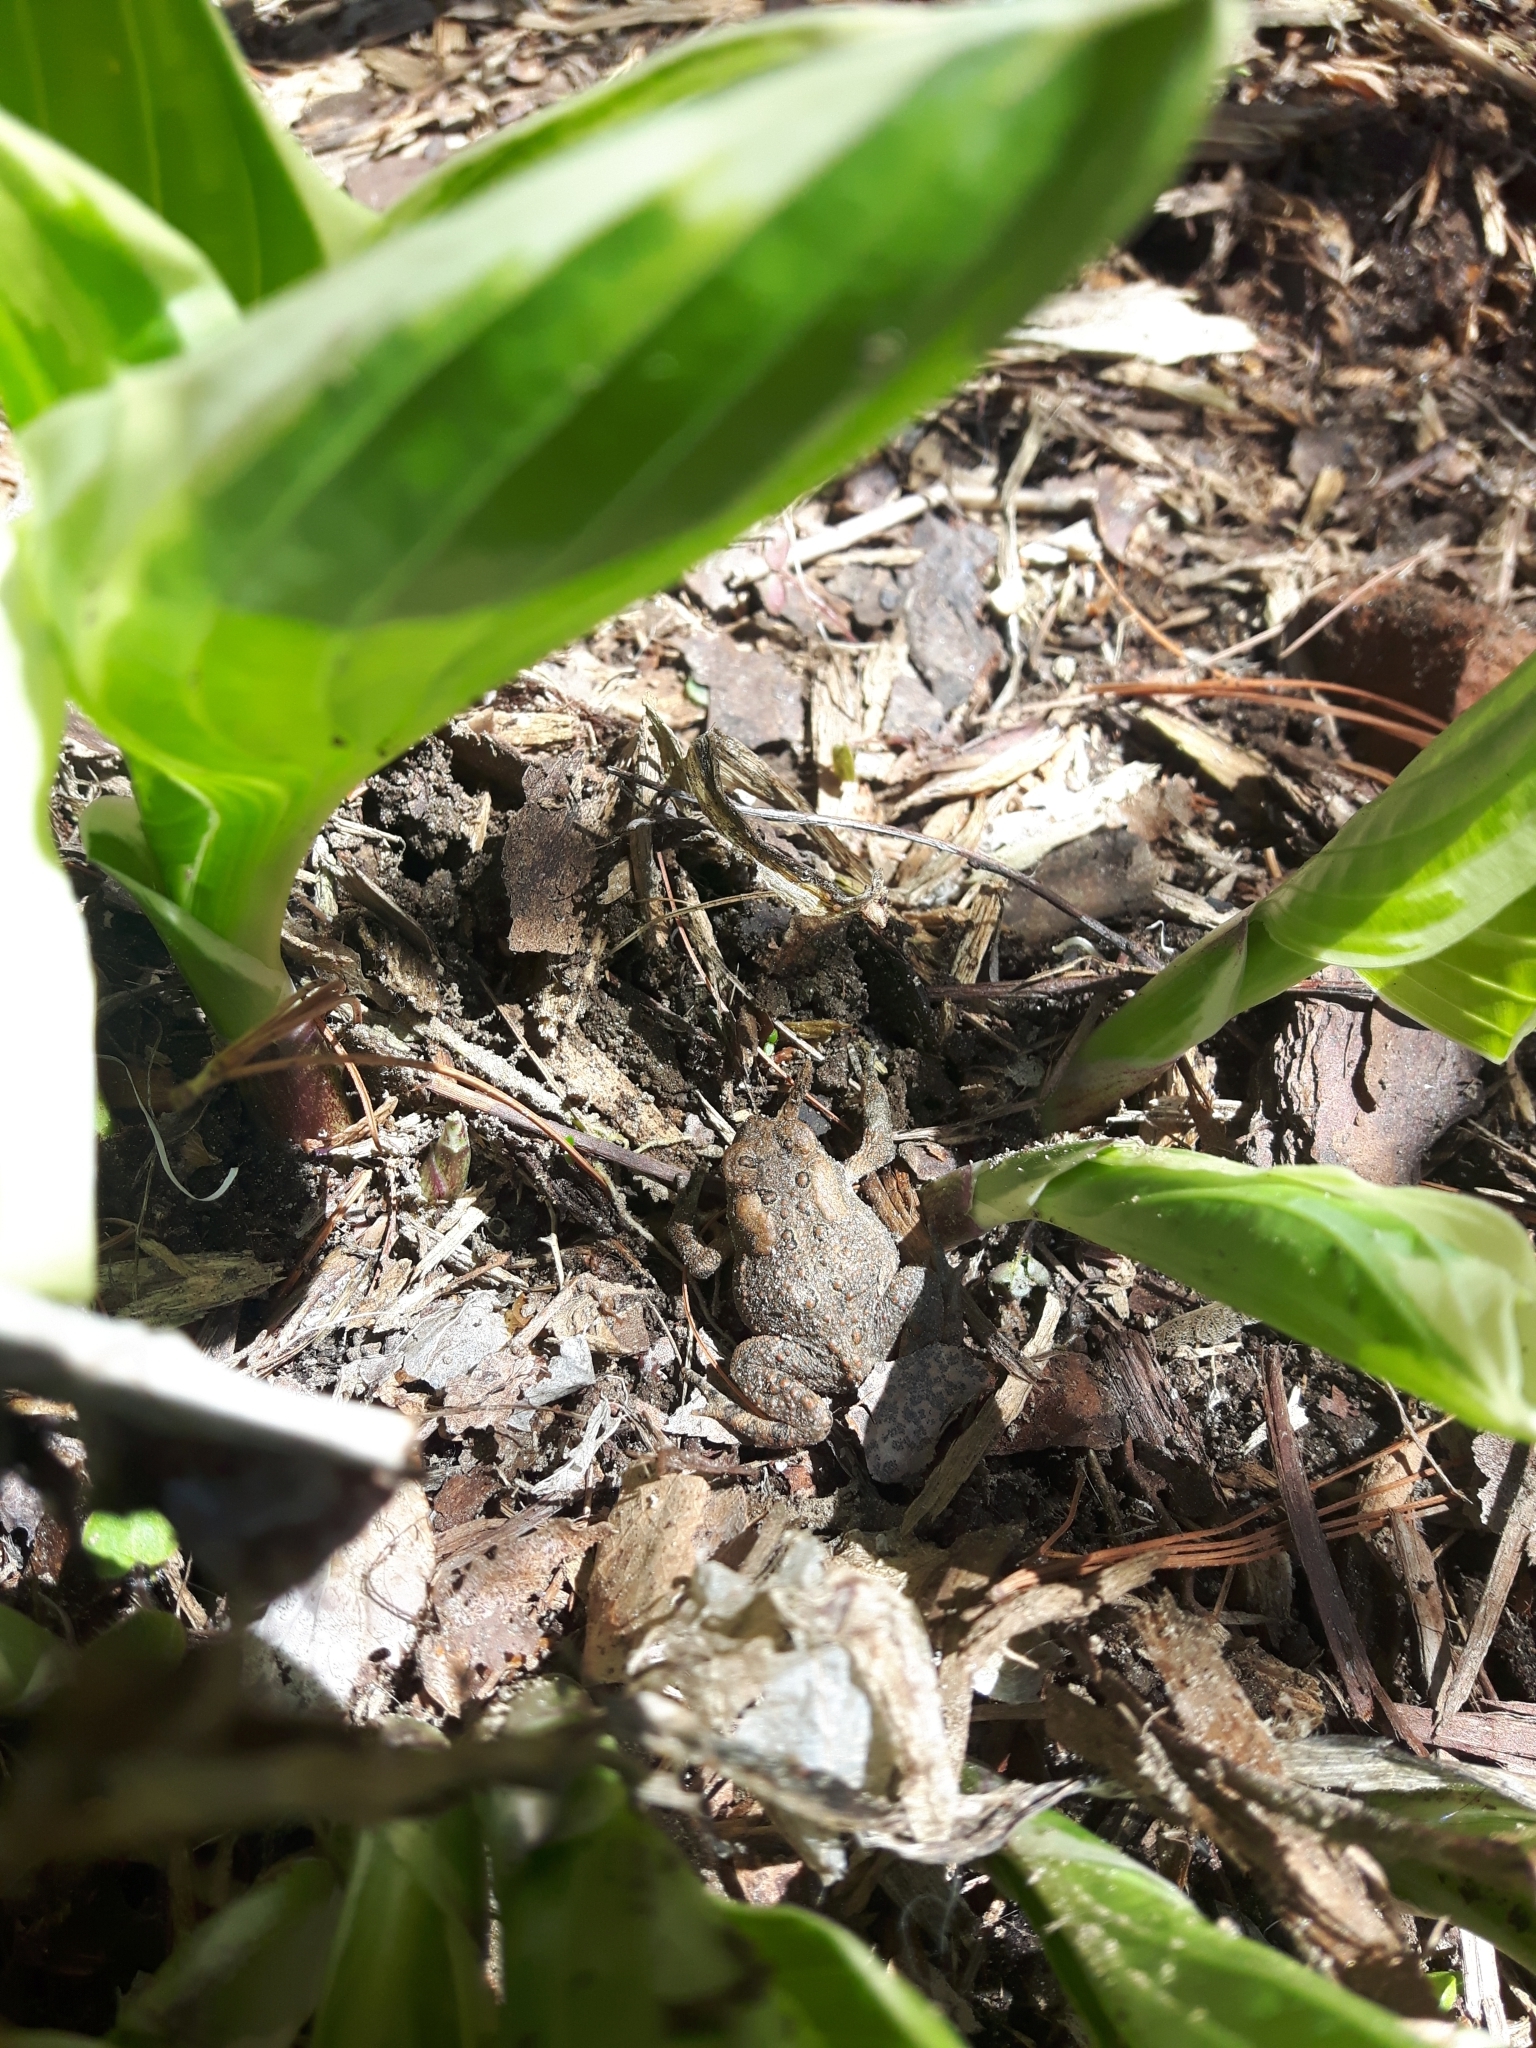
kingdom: Animalia
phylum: Chordata
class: Amphibia
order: Anura
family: Bufonidae
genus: Anaxyrus
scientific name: Anaxyrus americanus
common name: American toad
